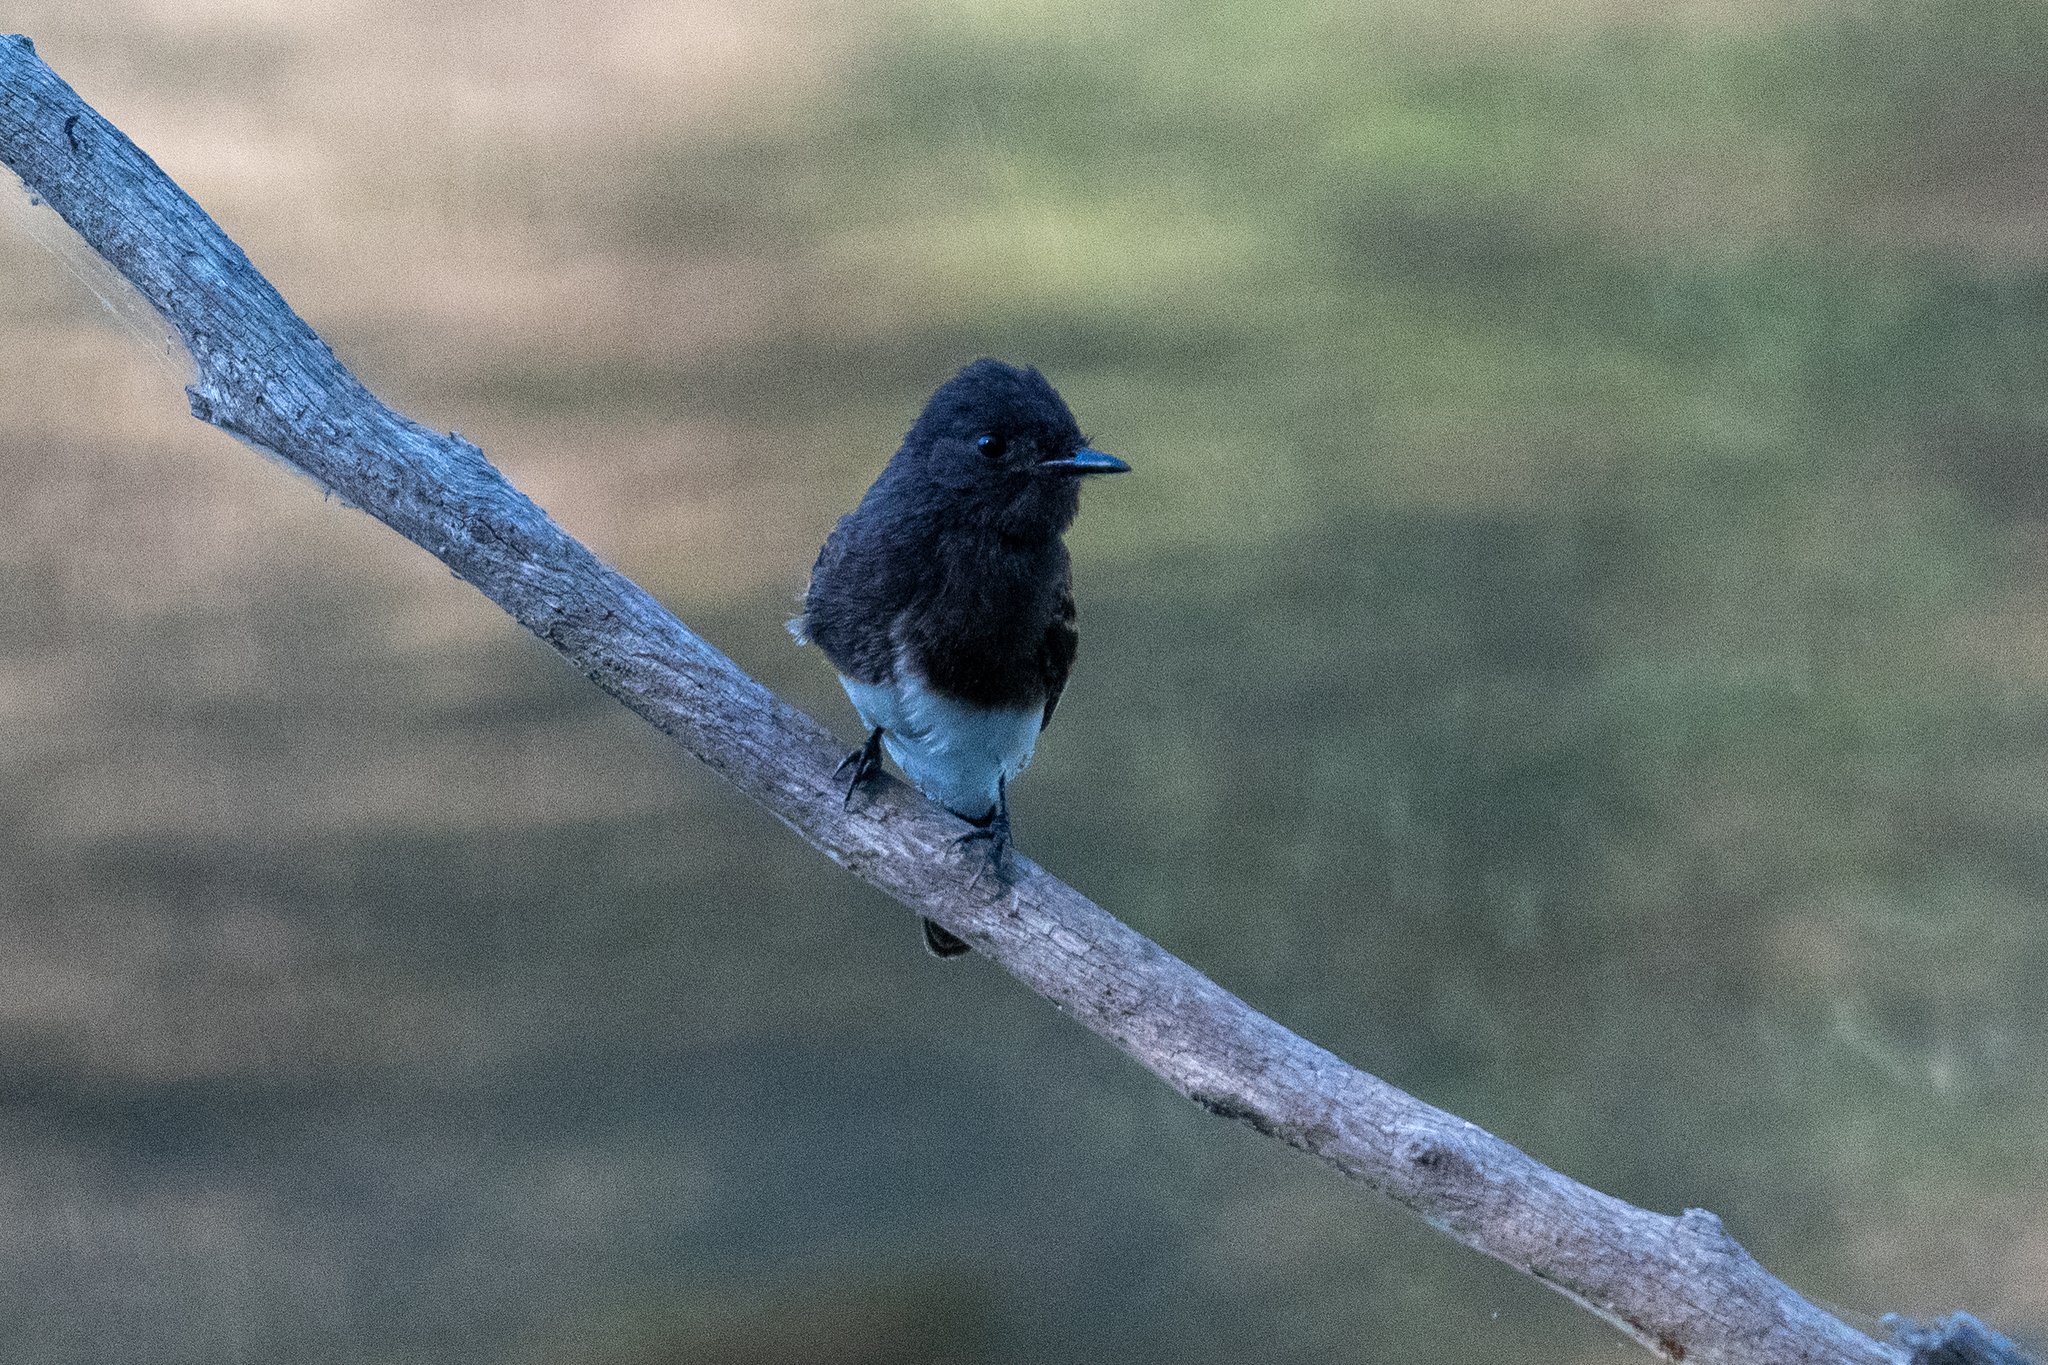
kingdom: Animalia
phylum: Chordata
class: Aves
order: Passeriformes
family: Tyrannidae
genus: Sayornis
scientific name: Sayornis nigricans
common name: Black phoebe
